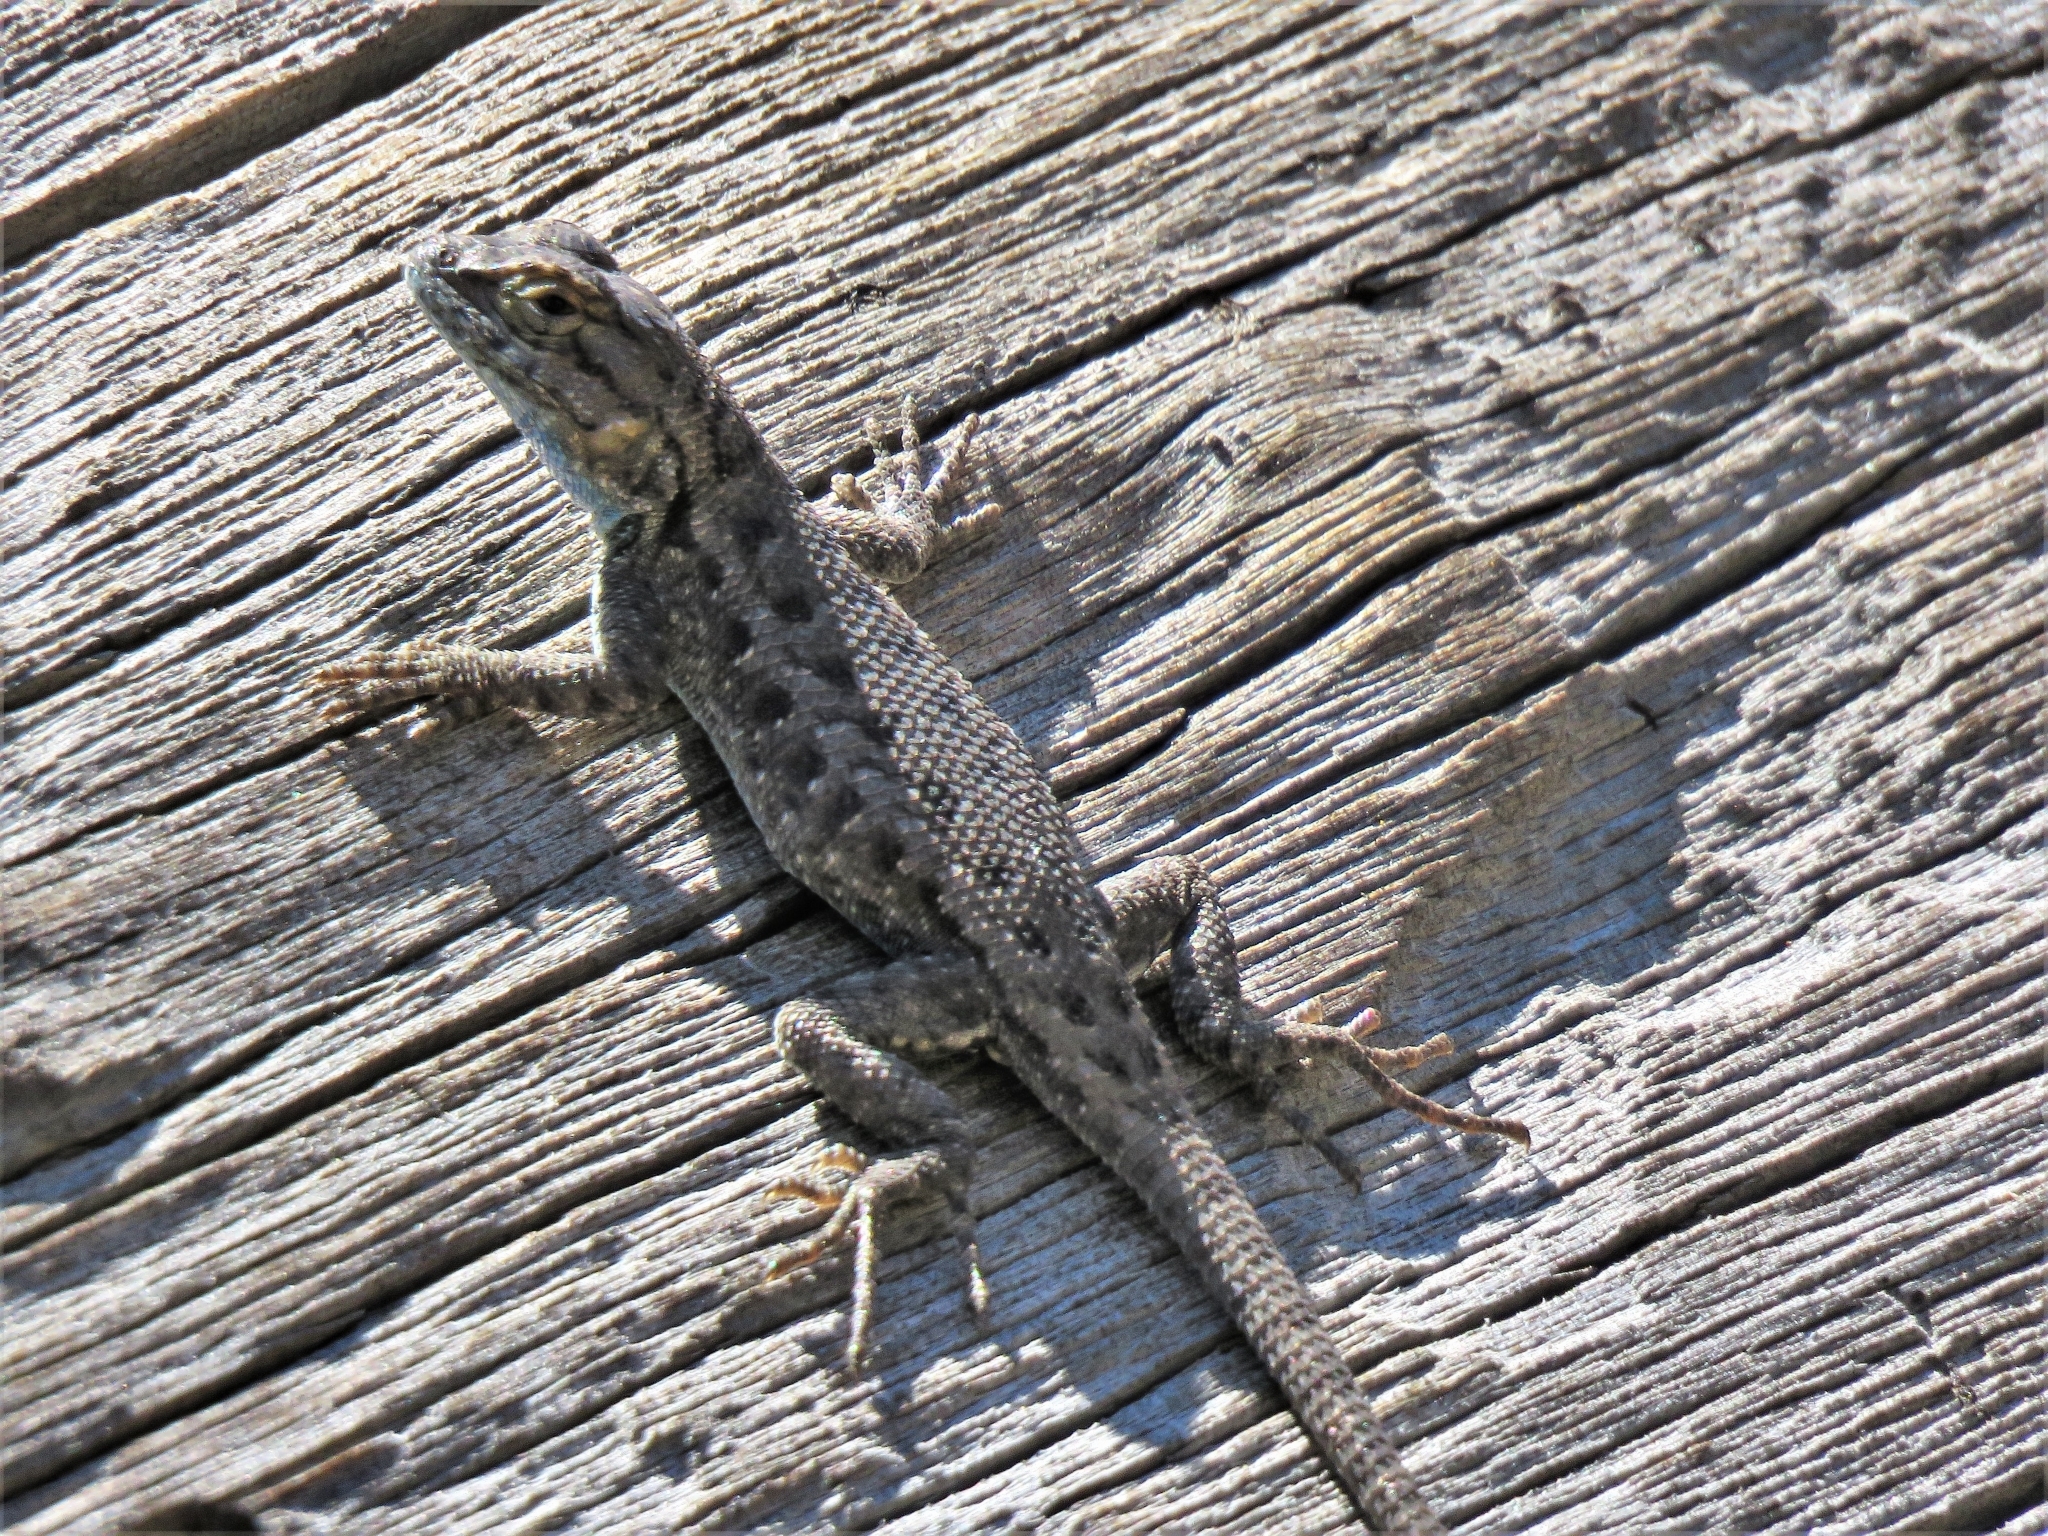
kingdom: Animalia
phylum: Chordata
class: Squamata
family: Phrynosomatidae
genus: Sceloporus
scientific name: Sceloporus occidentalis
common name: Western fence lizard
